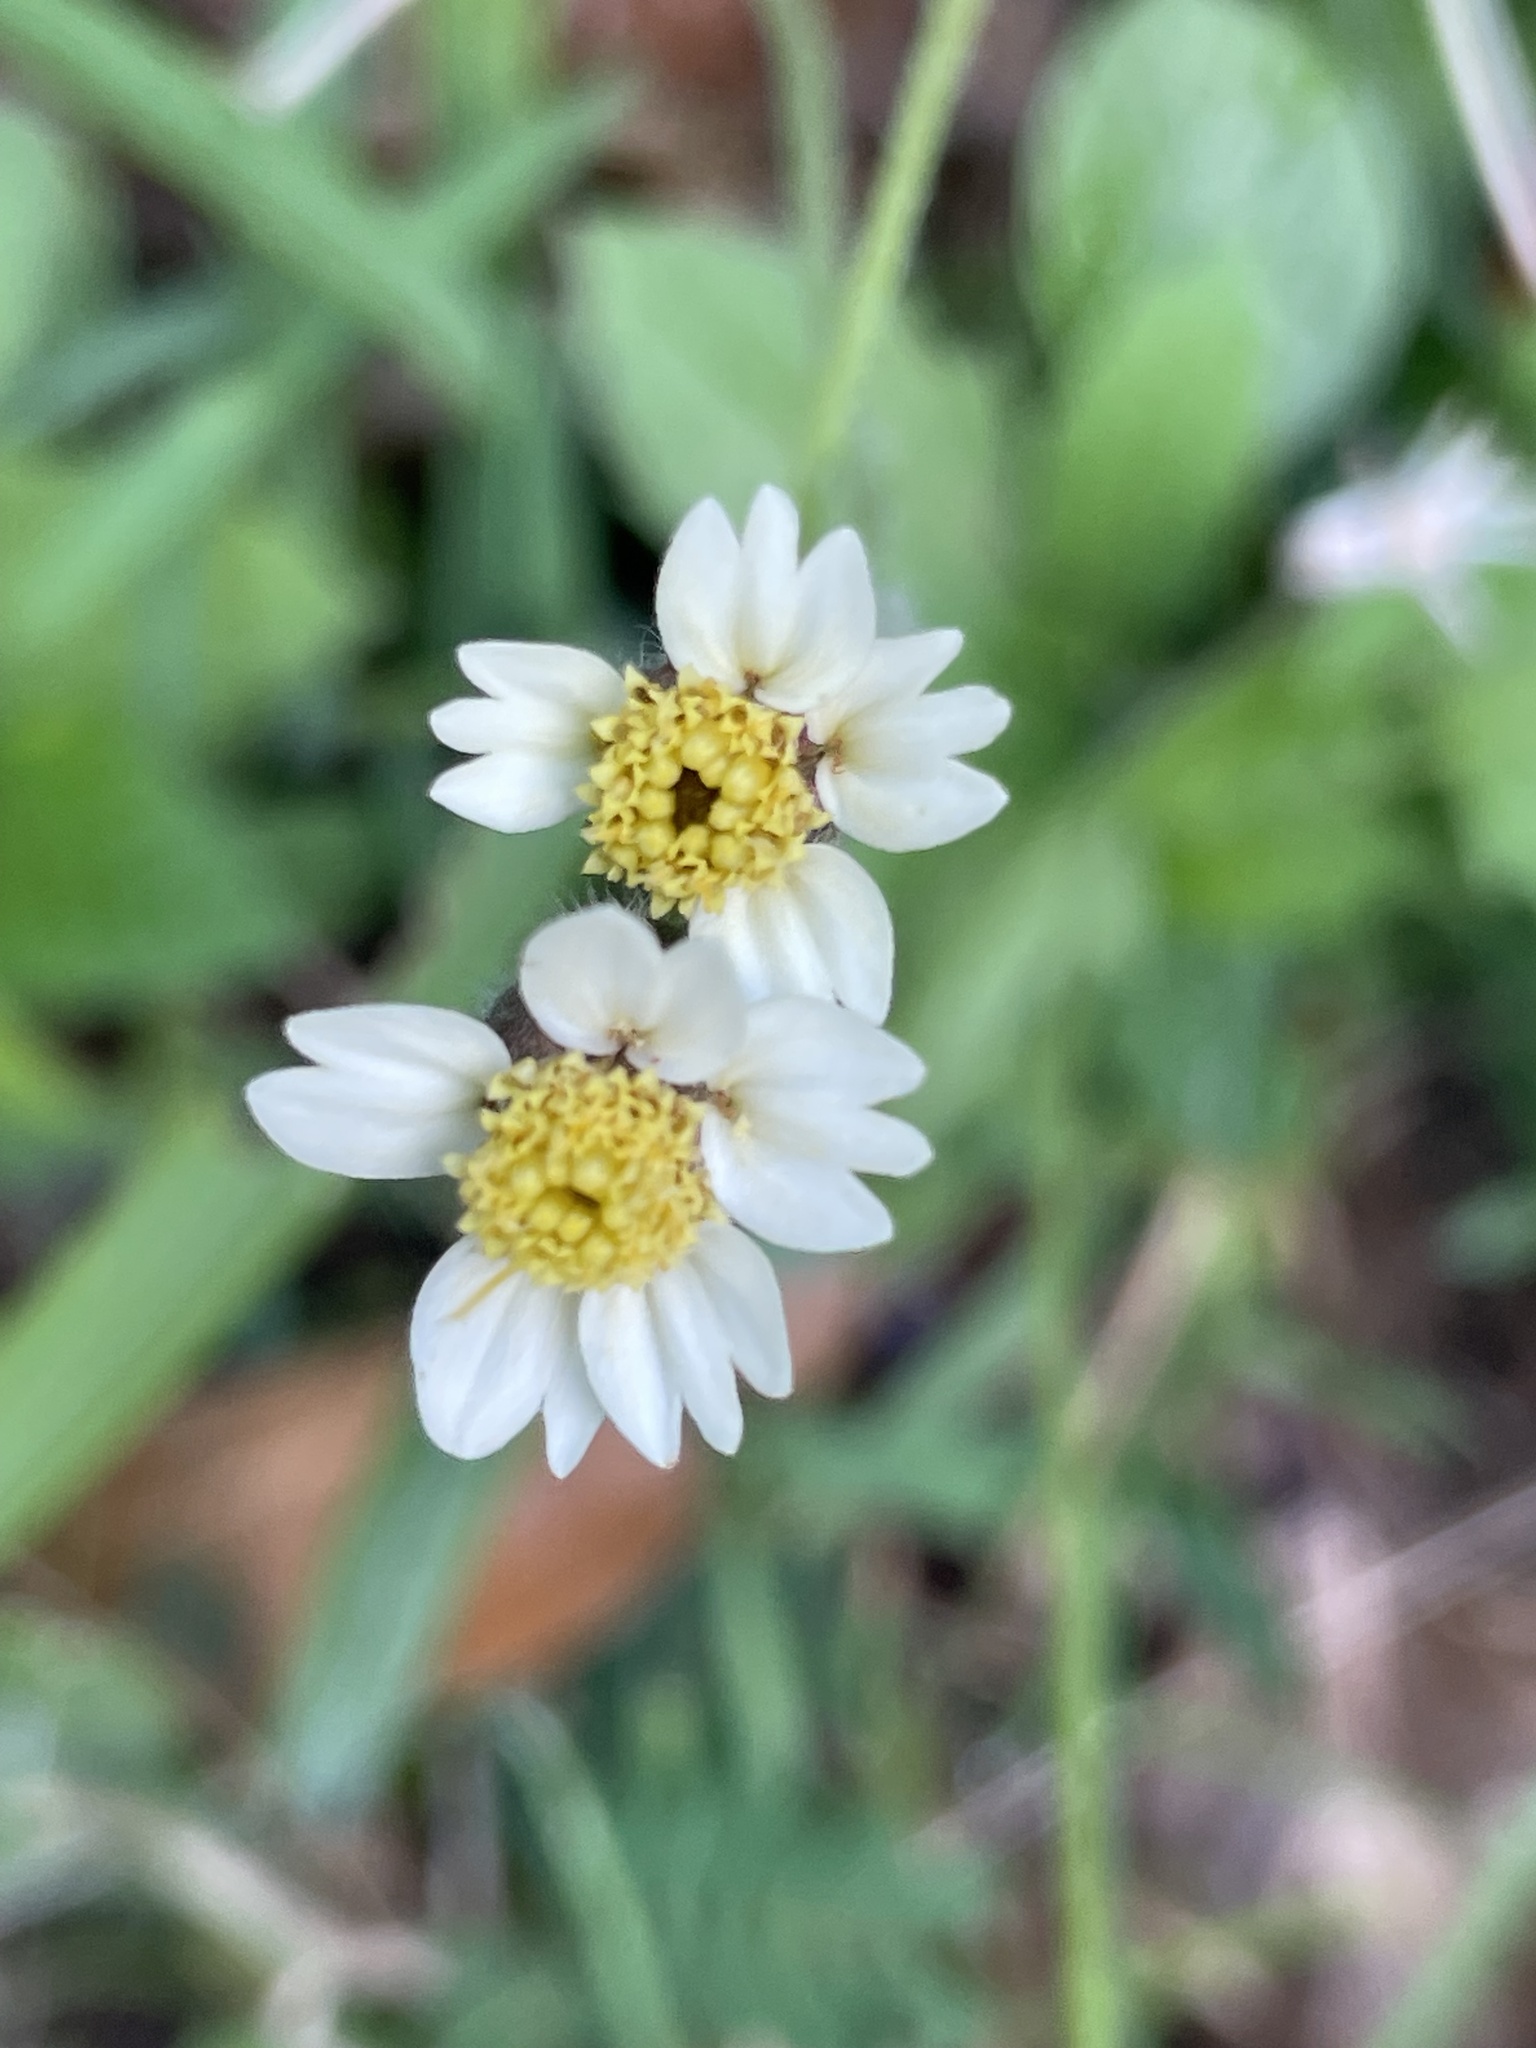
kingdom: Plantae
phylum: Tracheophyta
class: Magnoliopsida
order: Asterales
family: Asteraceae
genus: Tridax
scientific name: Tridax procumbens
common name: Coatbuttons
